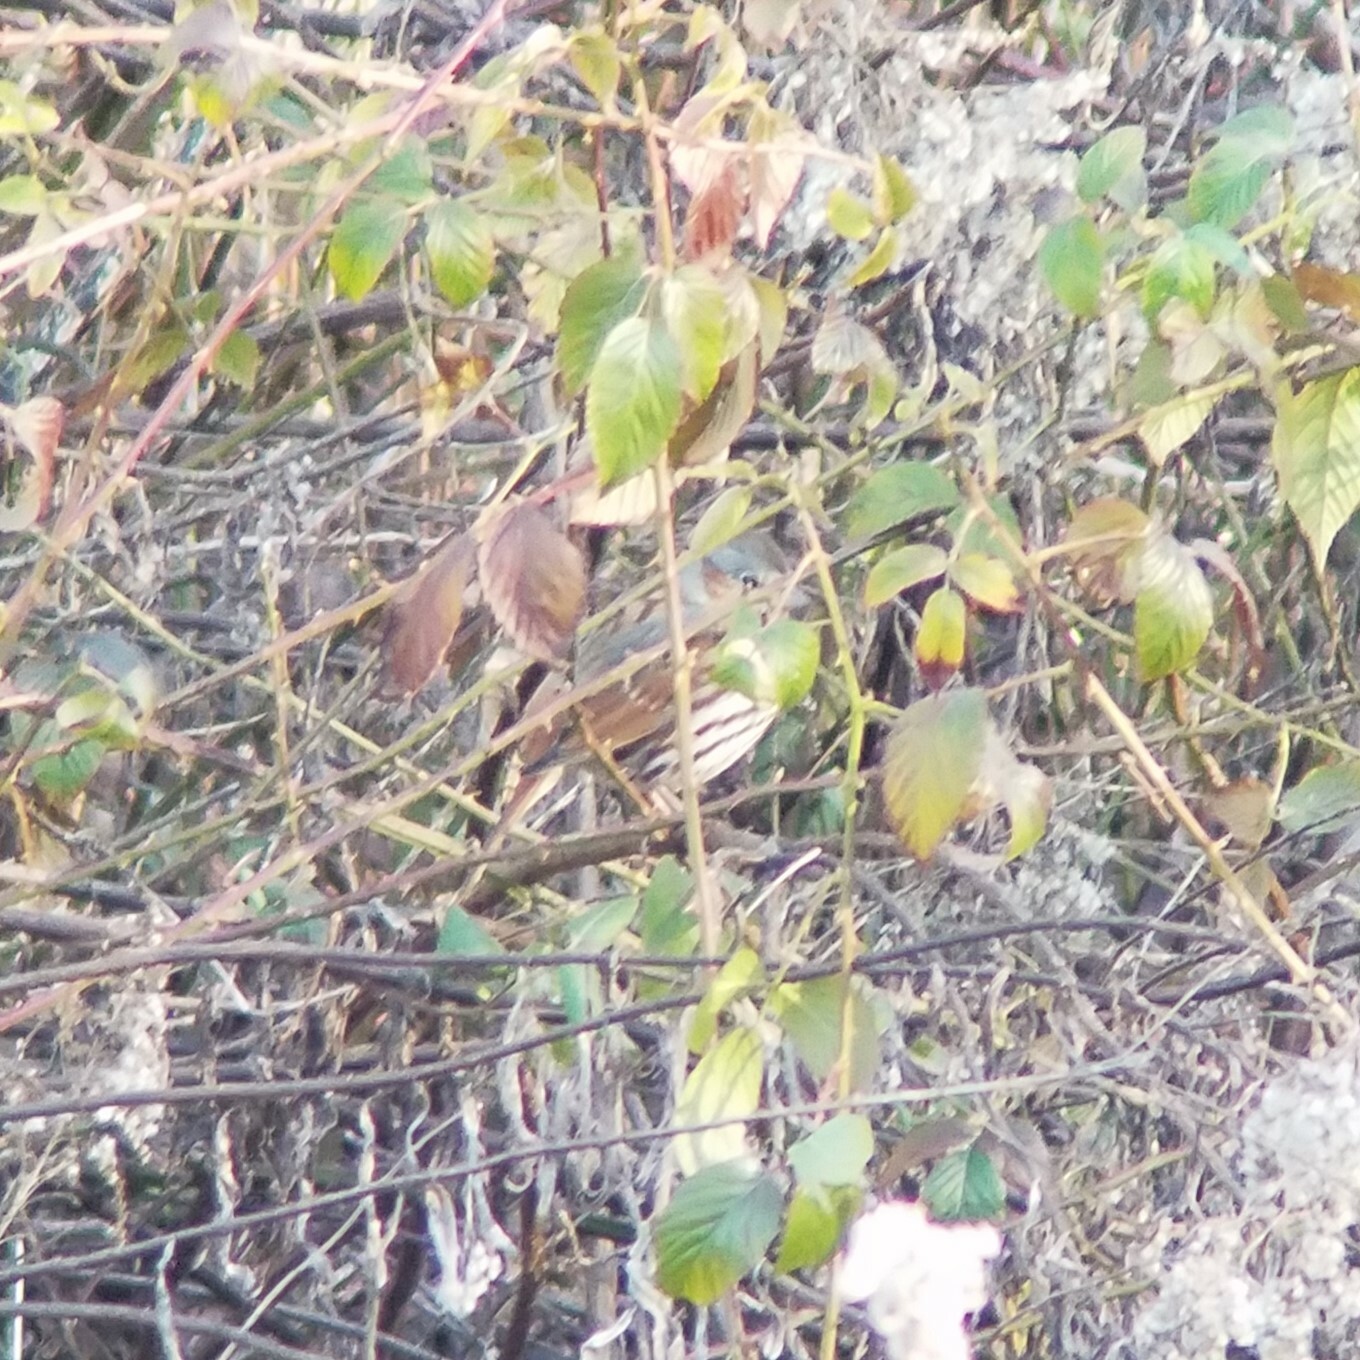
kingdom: Animalia
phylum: Chordata
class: Aves
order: Passeriformes
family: Passerellidae
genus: Passerella
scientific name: Passerella iliaca
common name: Fox sparrow
